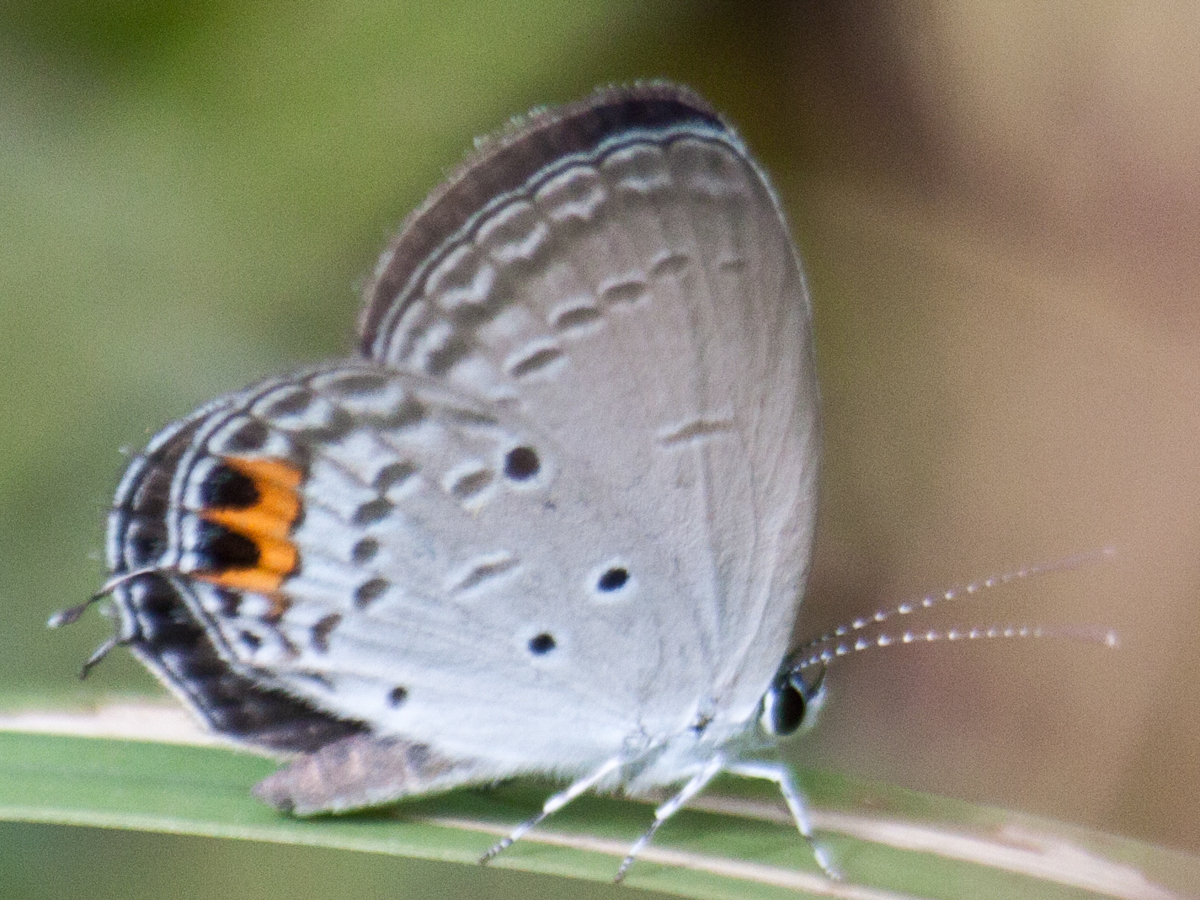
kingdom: Animalia
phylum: Arthropoda
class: Insecta
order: Lepidoptera
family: Lycaenidae
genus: Everes
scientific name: Everes lacturnus
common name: Orange-tipped pea-blue
